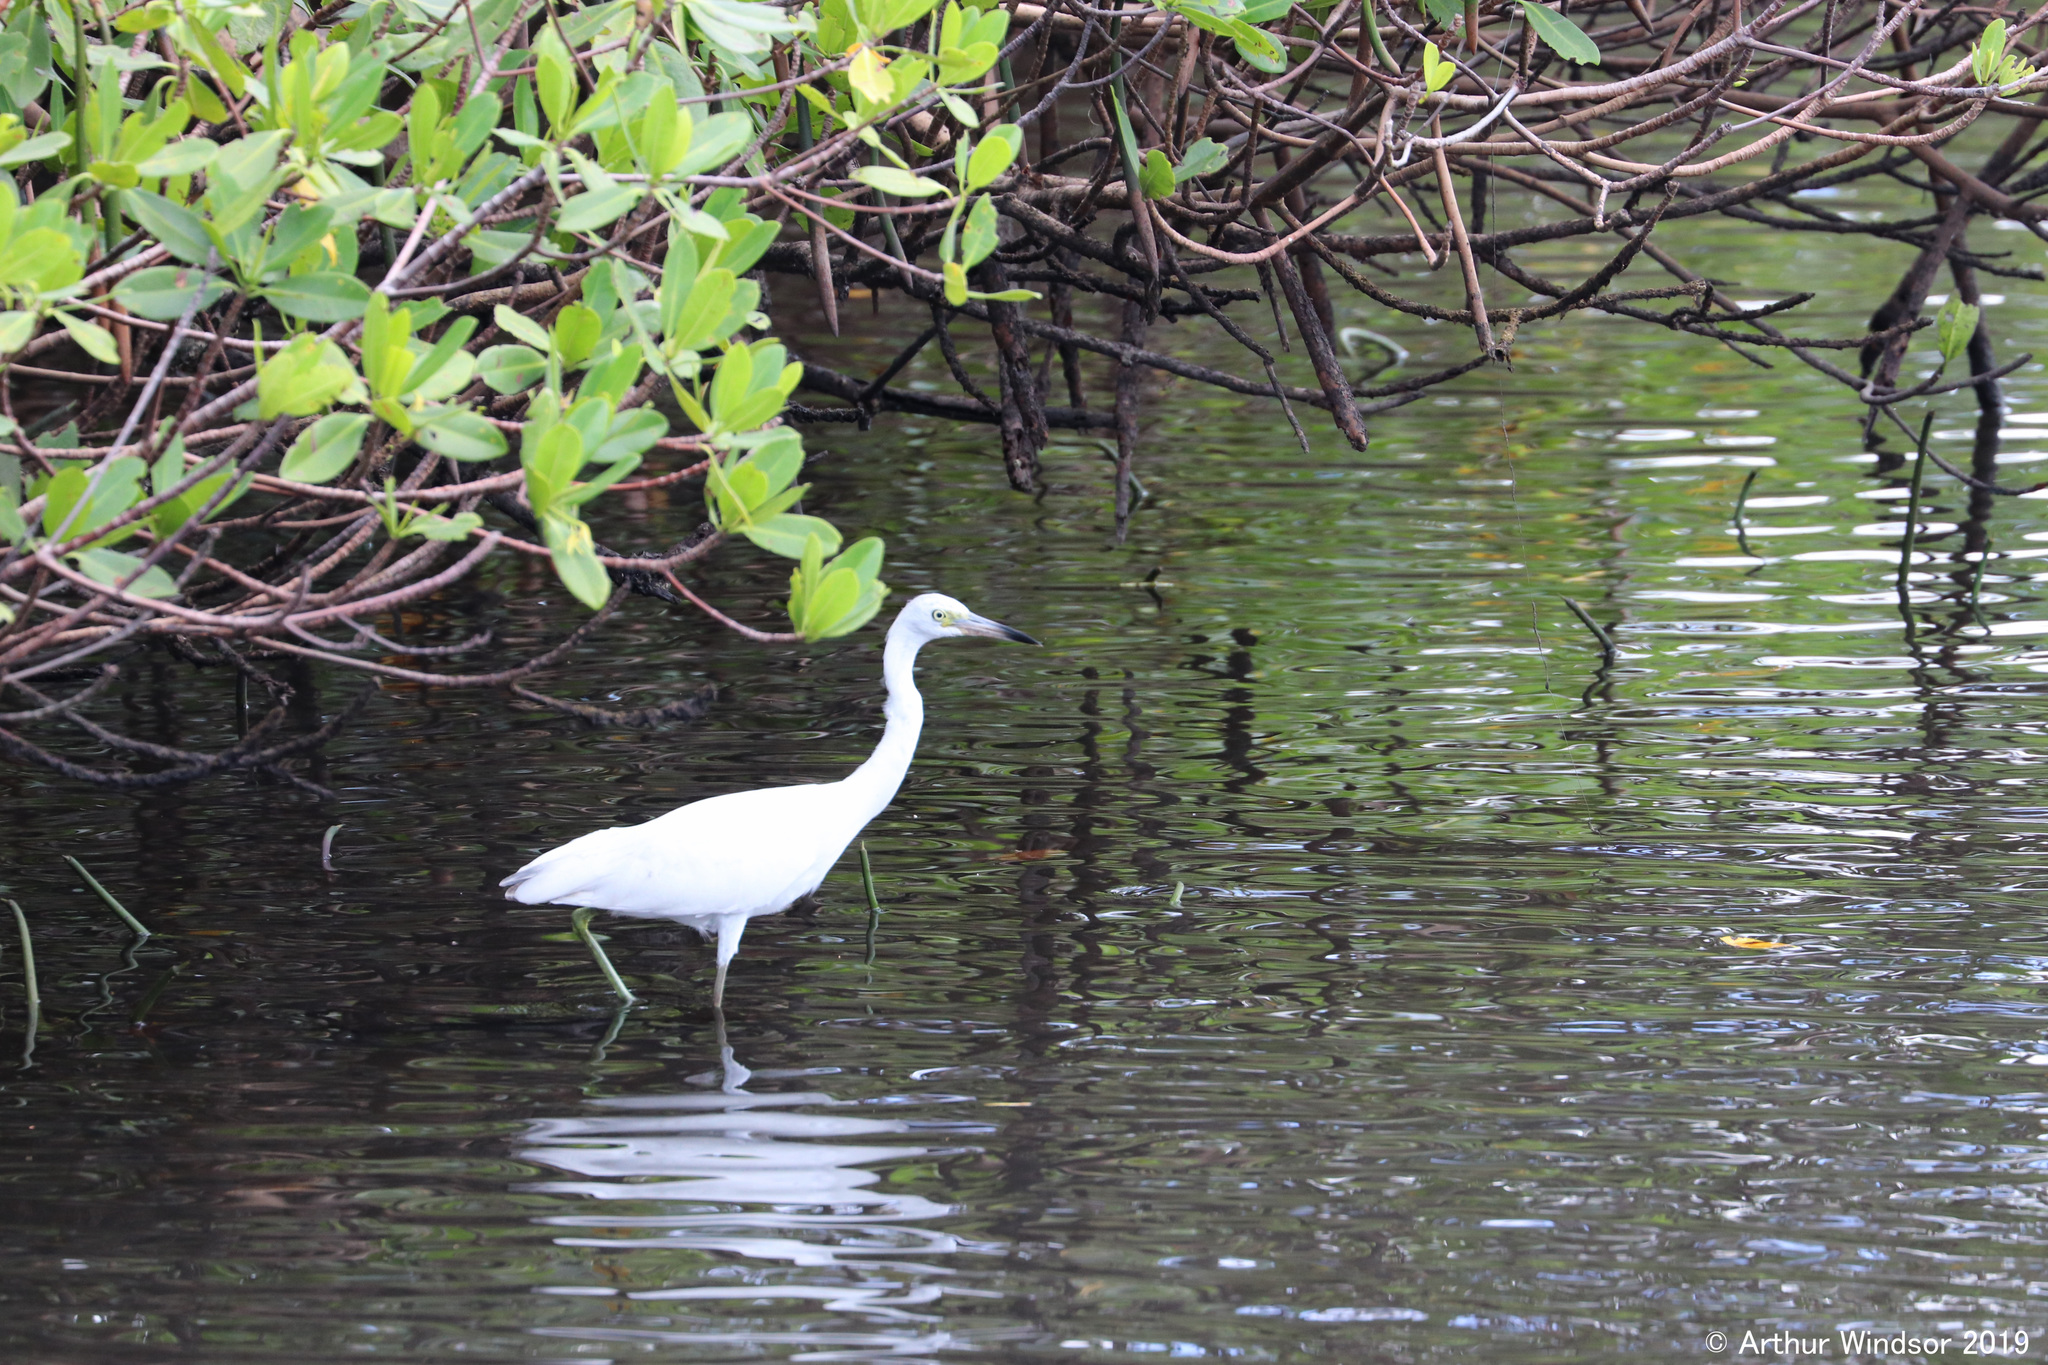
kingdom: Animalia
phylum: Chordata
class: Aves
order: Pelecaniformes
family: Ardeidae
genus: Egretta
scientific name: Egretta caerulea
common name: Little blue heron
